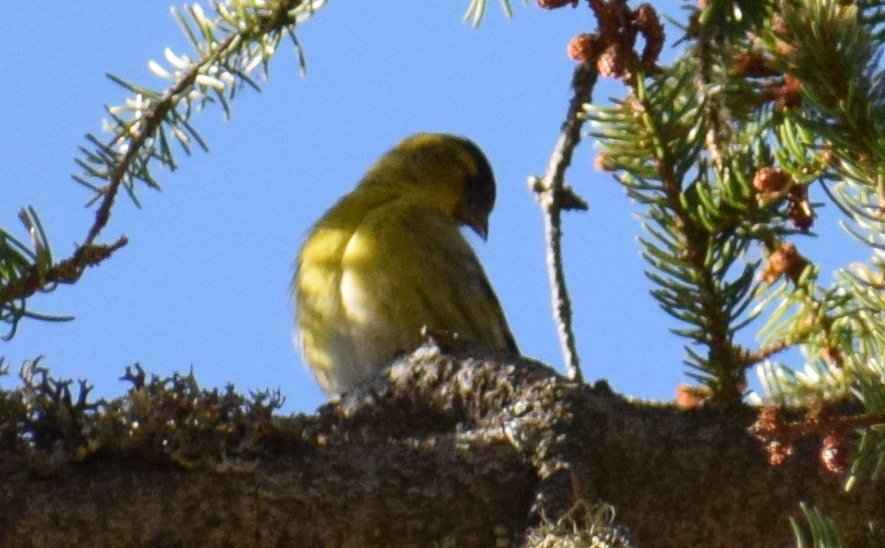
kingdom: Animalia
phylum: Chordata
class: Aves
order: Passeriformes
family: Fringillidae
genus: Spinus
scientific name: Spinus spinus
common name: Eurasian siskin
